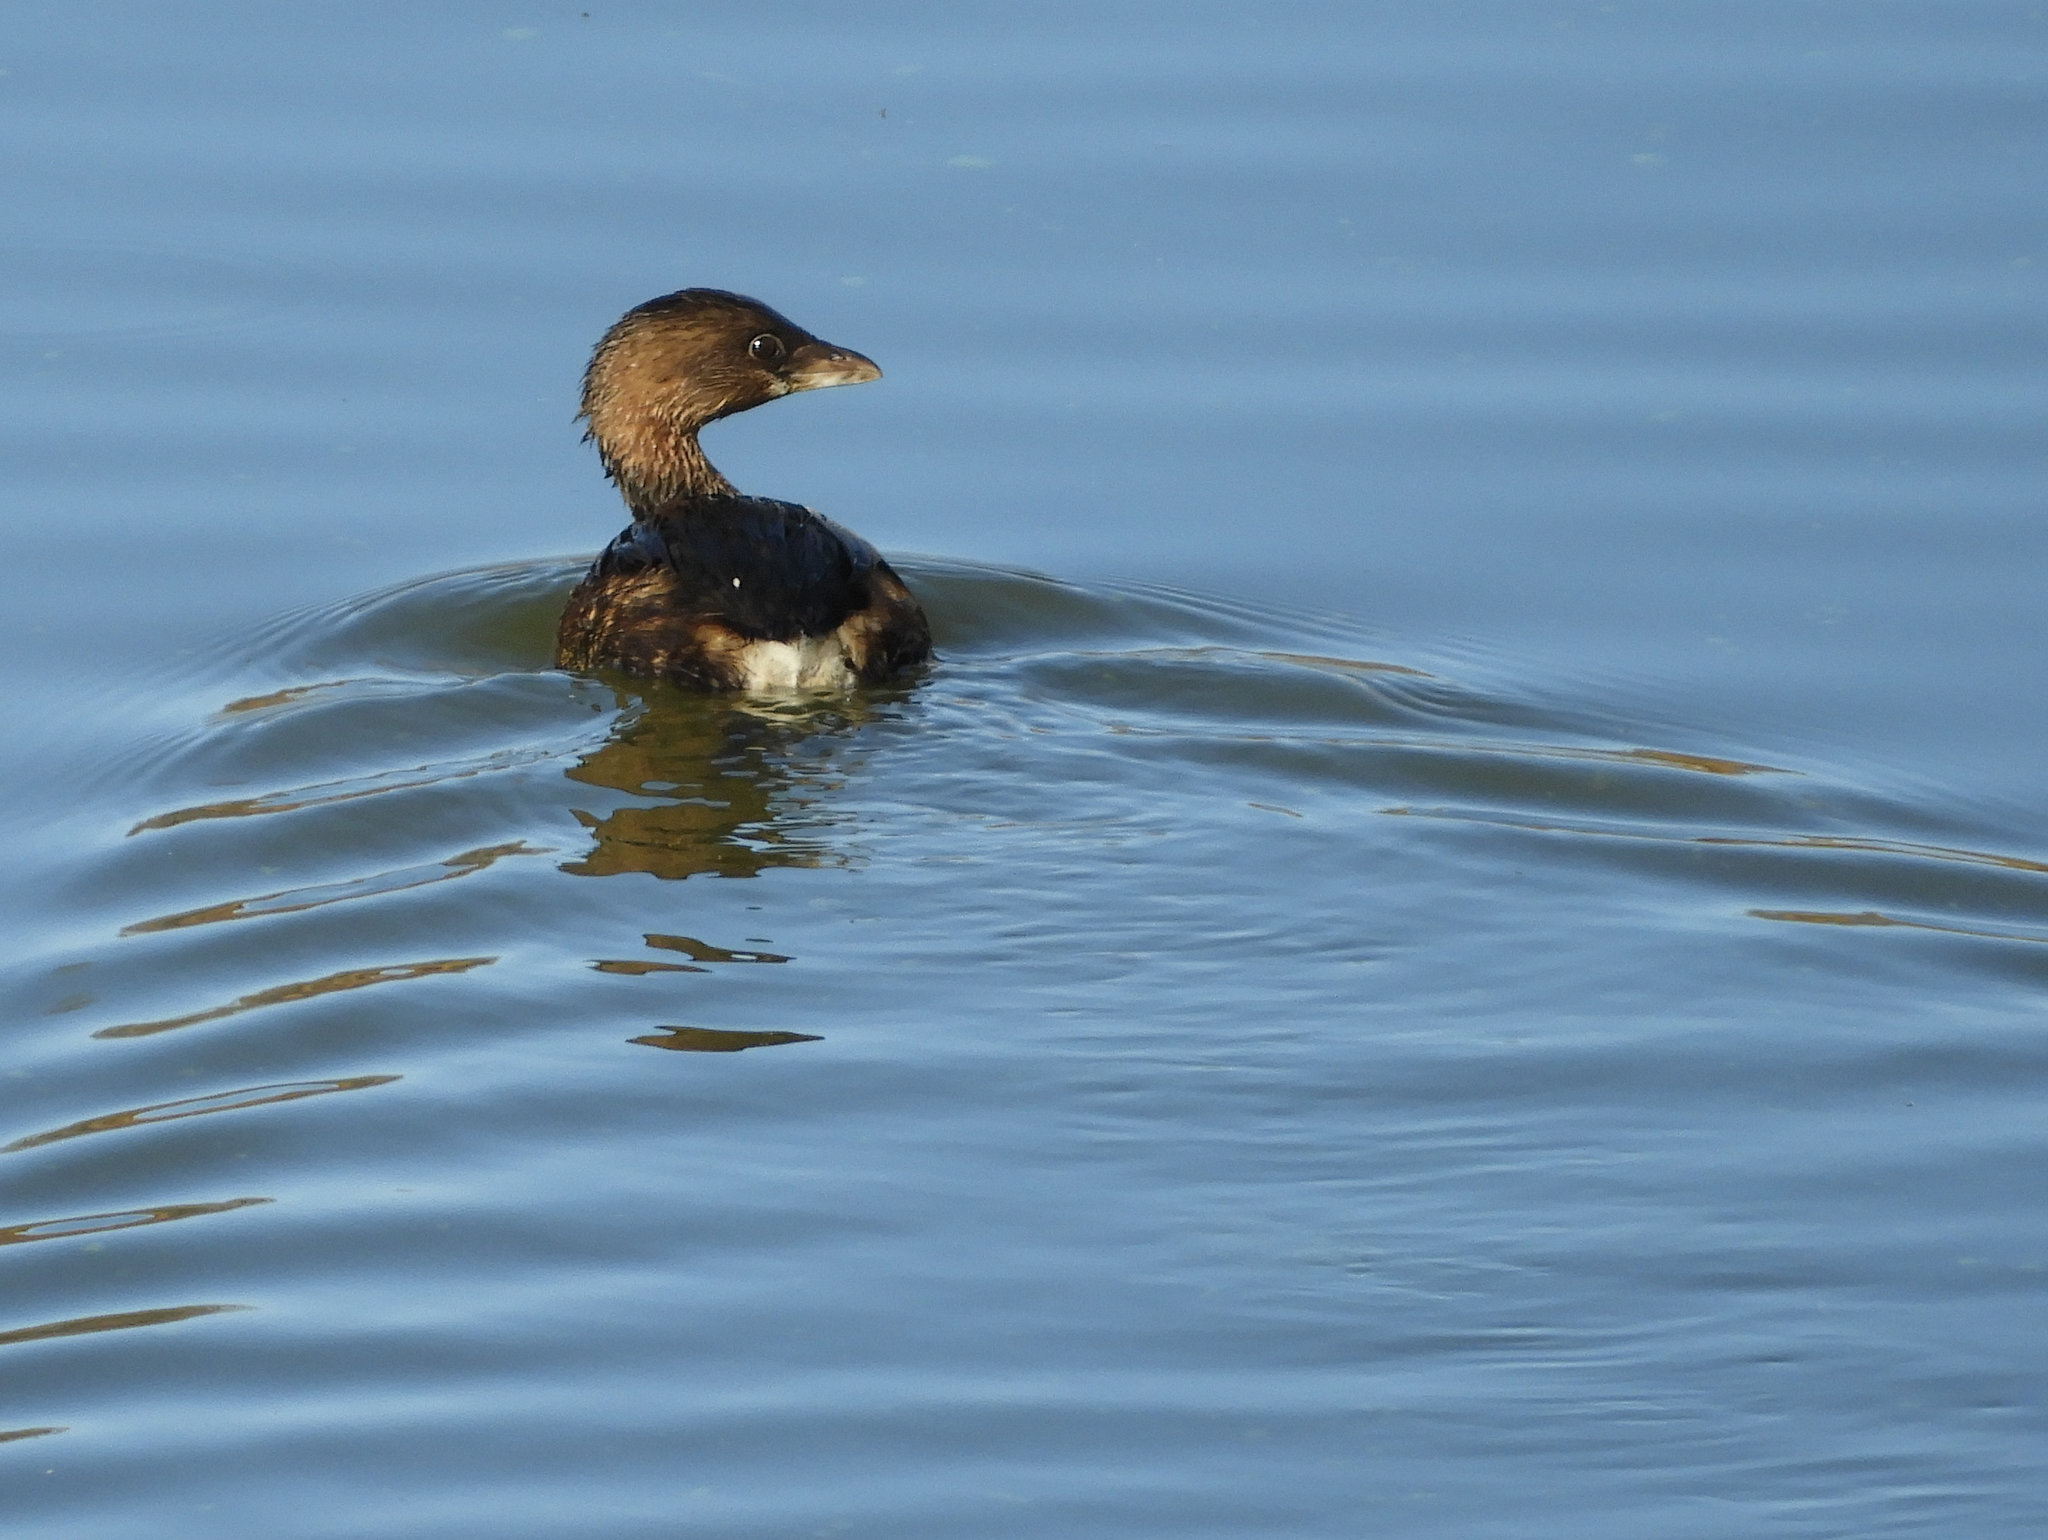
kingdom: Animalia
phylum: Chordata
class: Aves
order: Podicipediformes
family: Podicipedidae
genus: Podilymbus
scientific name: Podilymbus podiceps
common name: Pied-billed grebe
